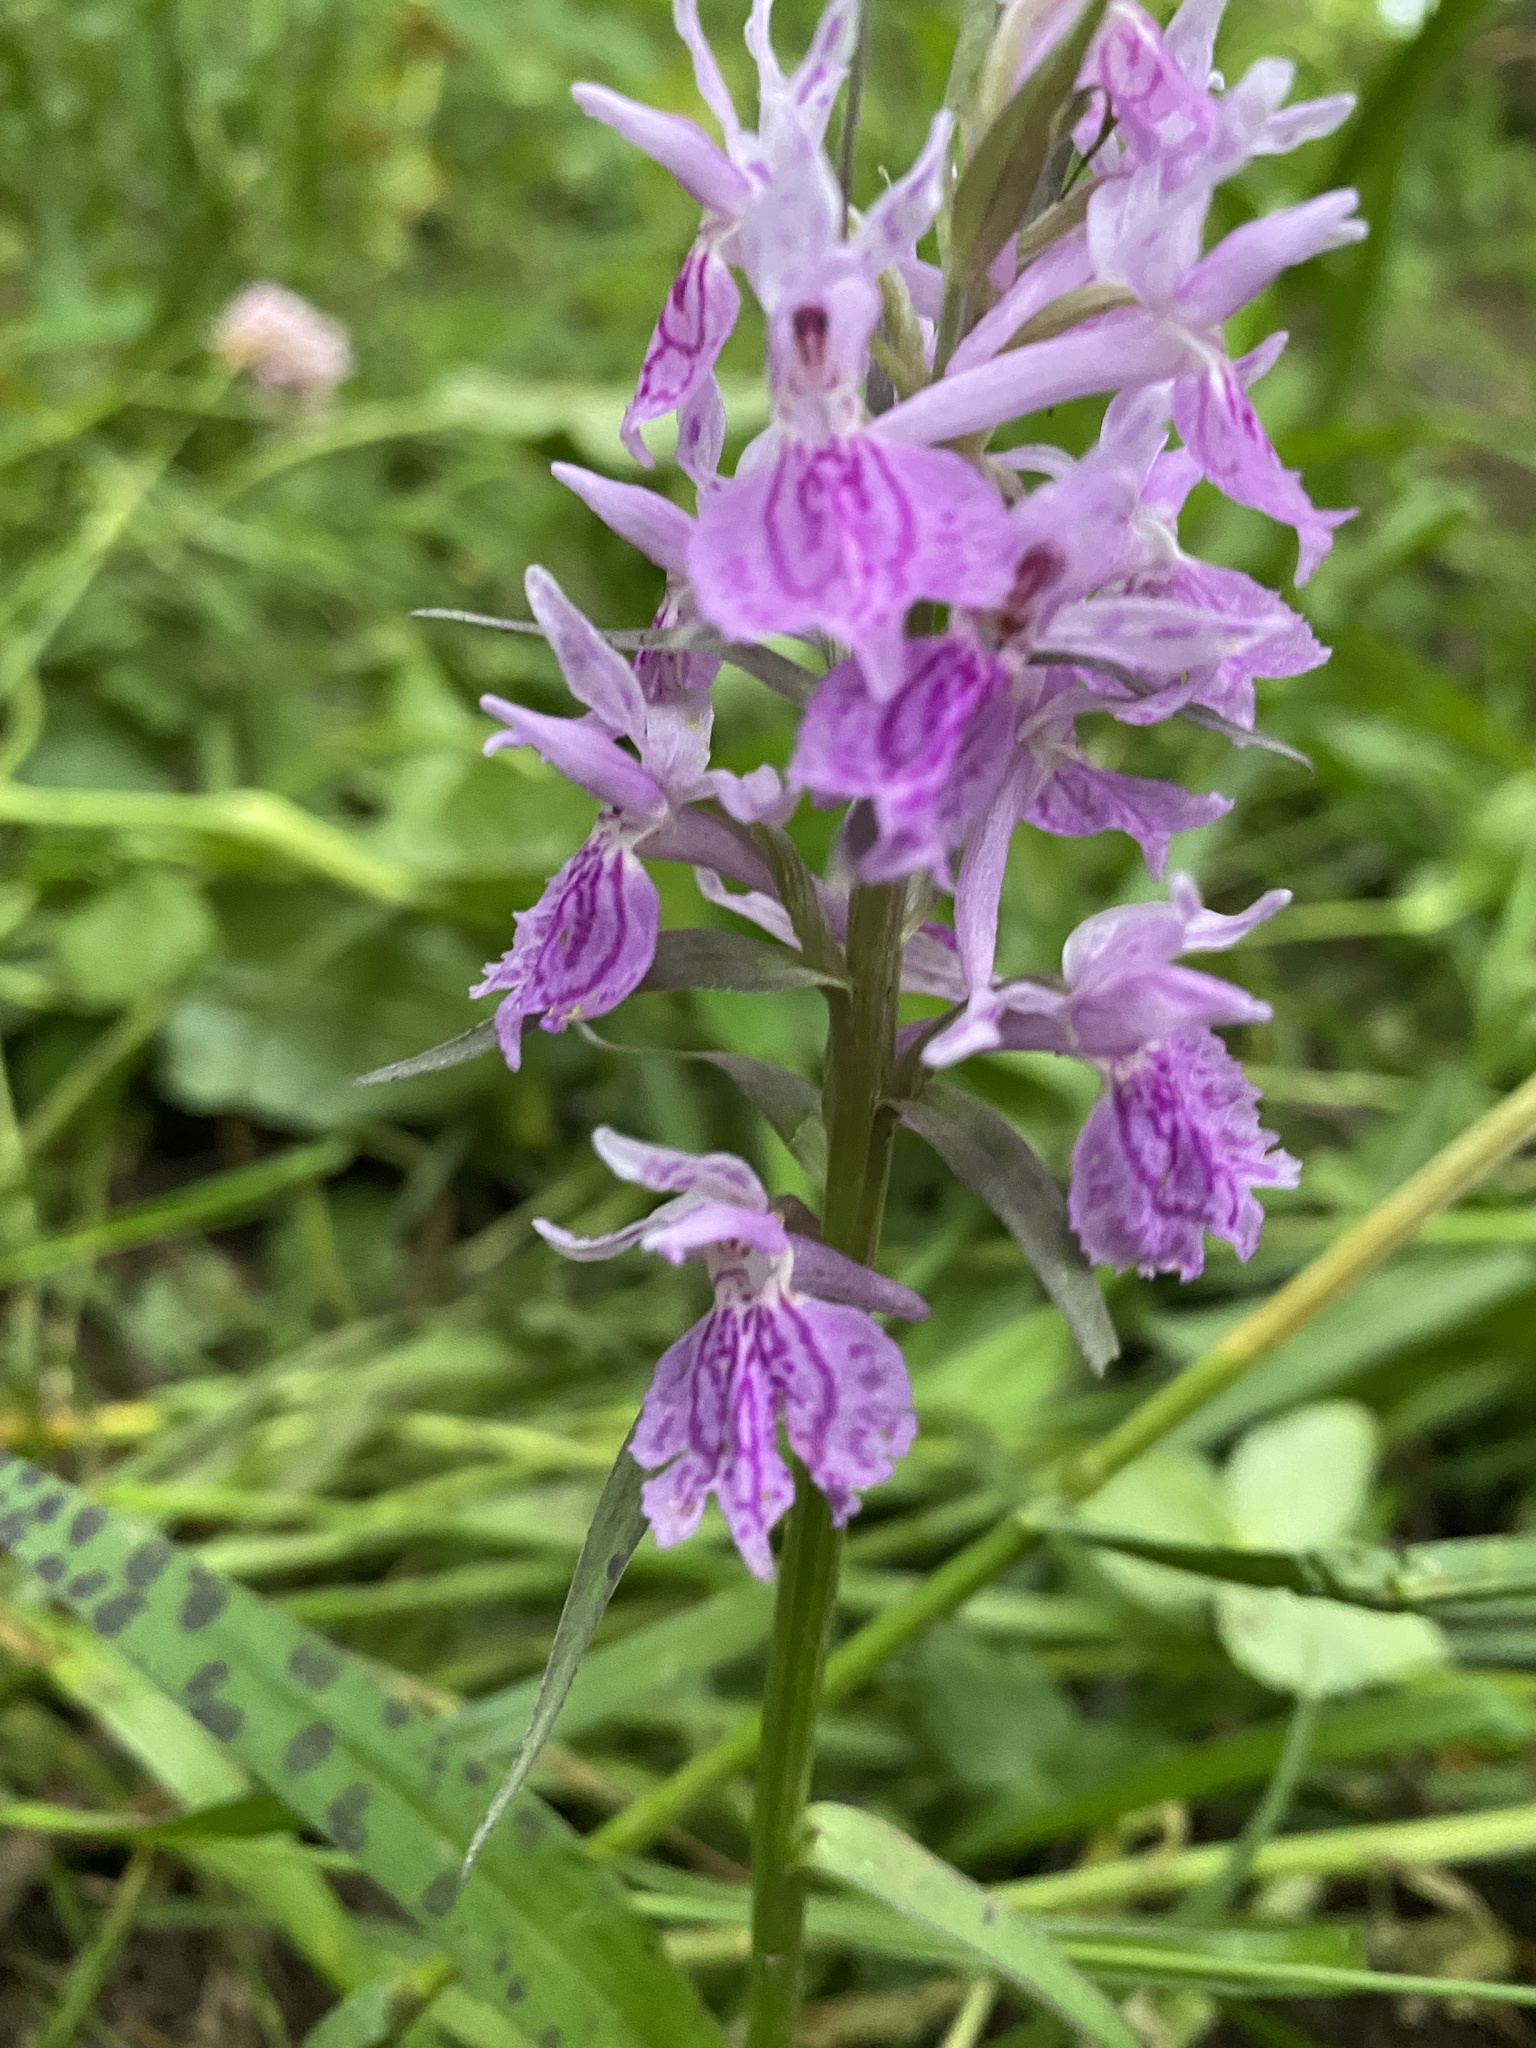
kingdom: Plantae
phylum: Tracheophyta
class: Liliopsida
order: Asparagales
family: Orchidaceae
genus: Dactylorhiza
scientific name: Dactylorhiza urvilleana
